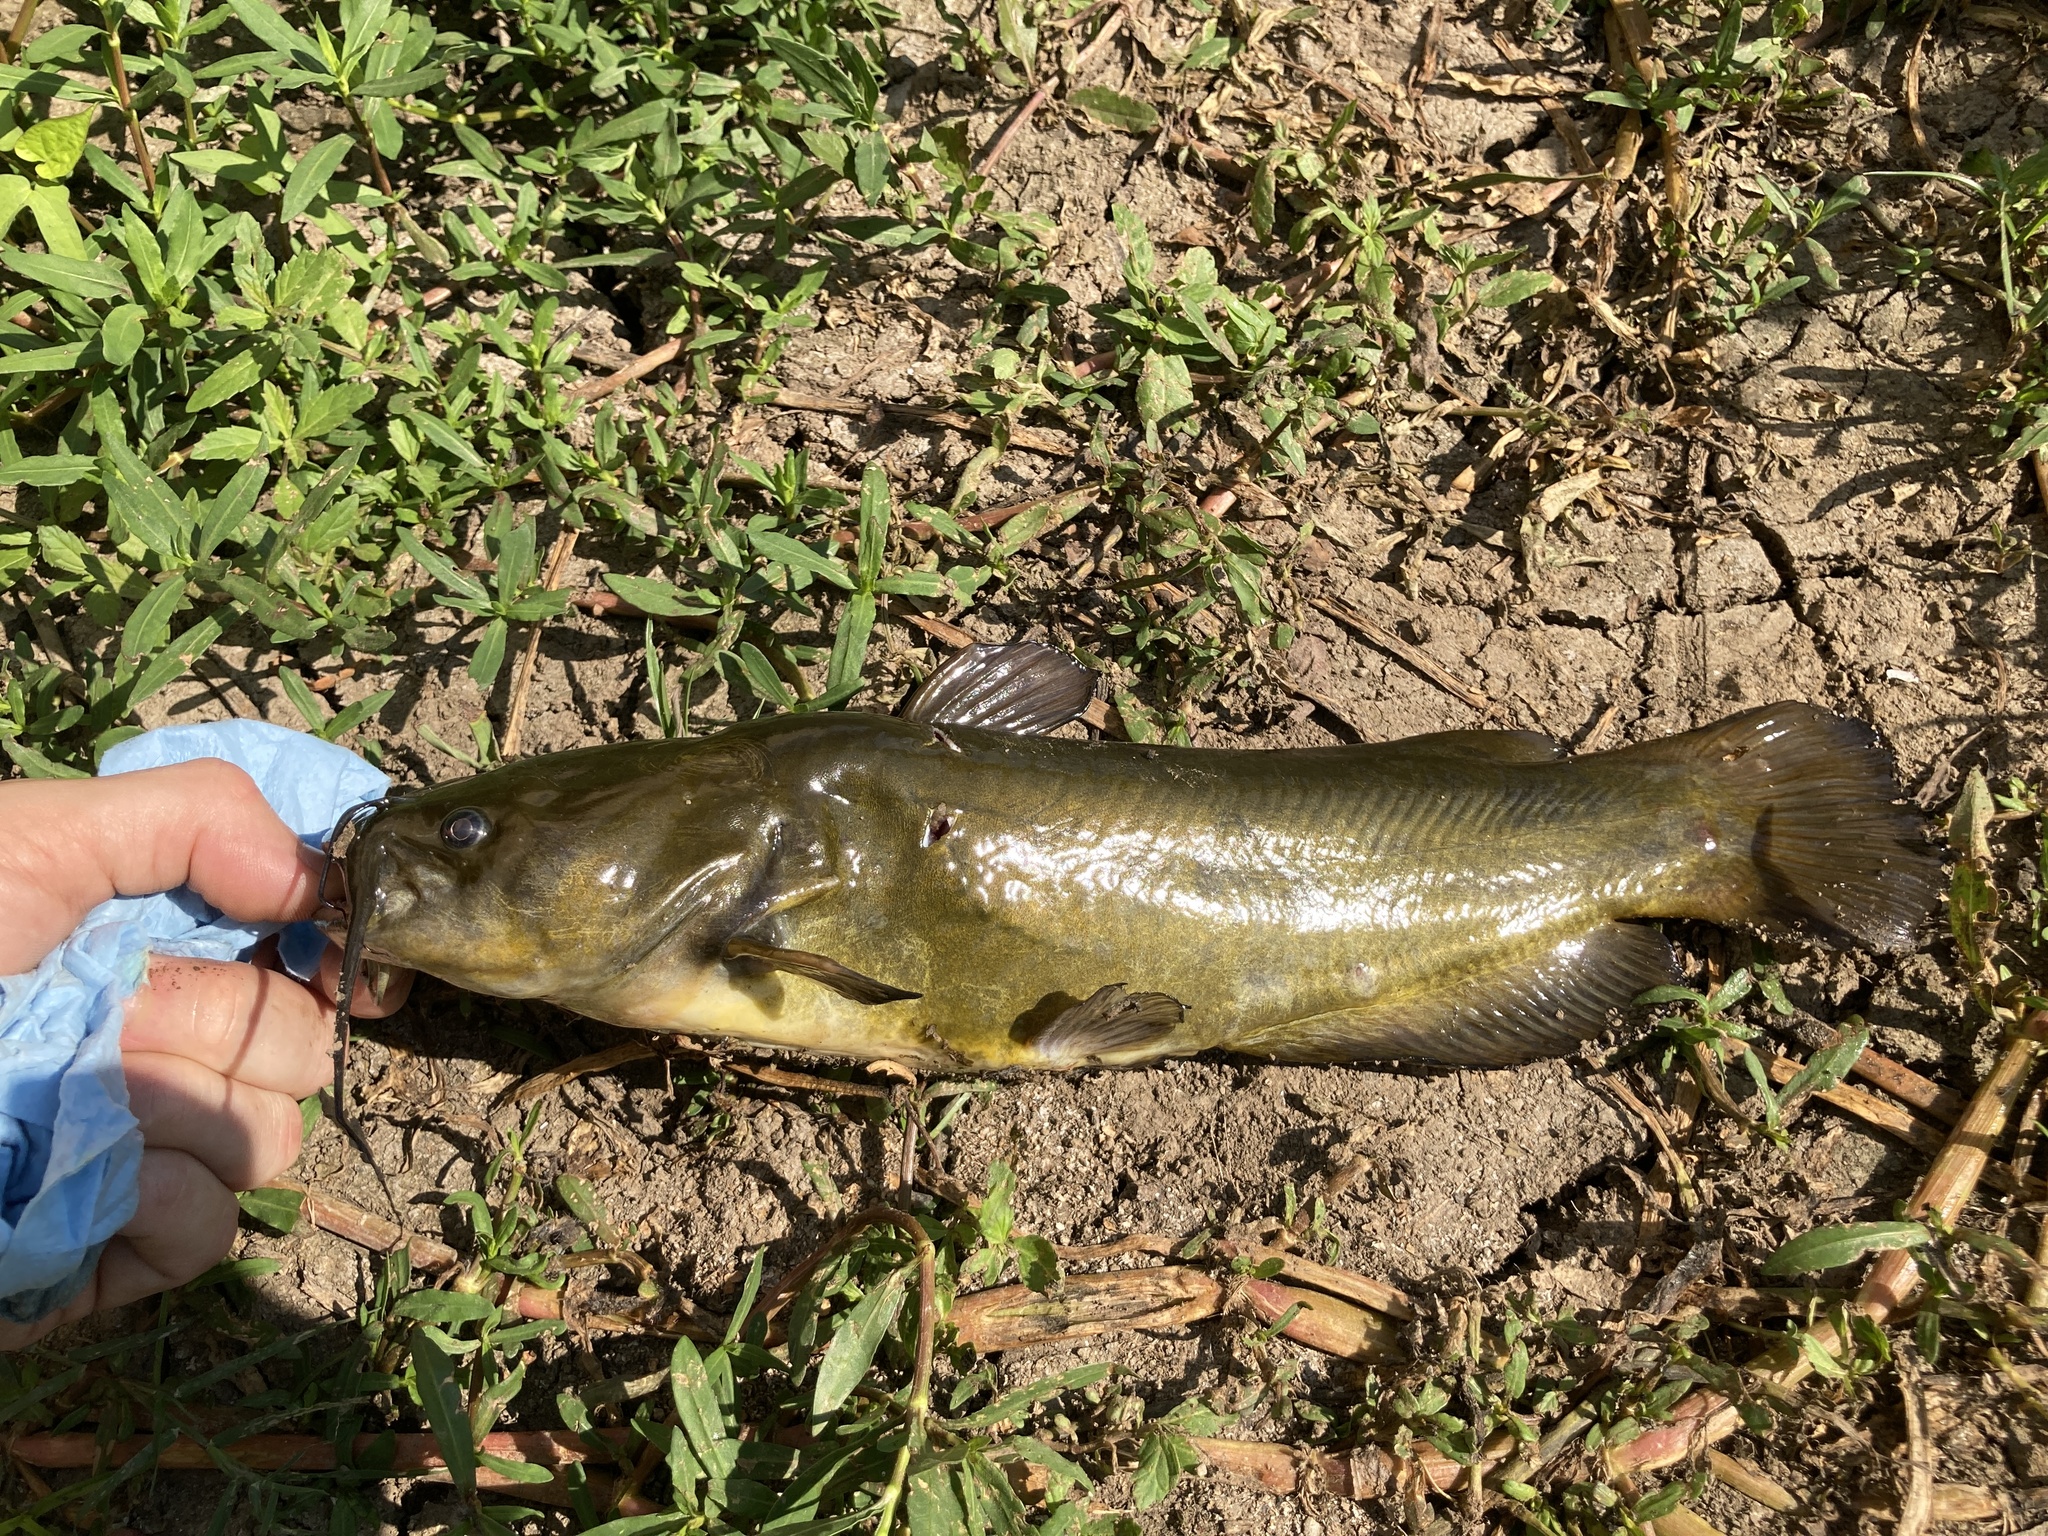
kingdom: Animalia
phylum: Chordata
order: Siluriformes
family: Ictaluridae
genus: Ameiurus
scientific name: Ameiurus natalis
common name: Yellow bullhead
